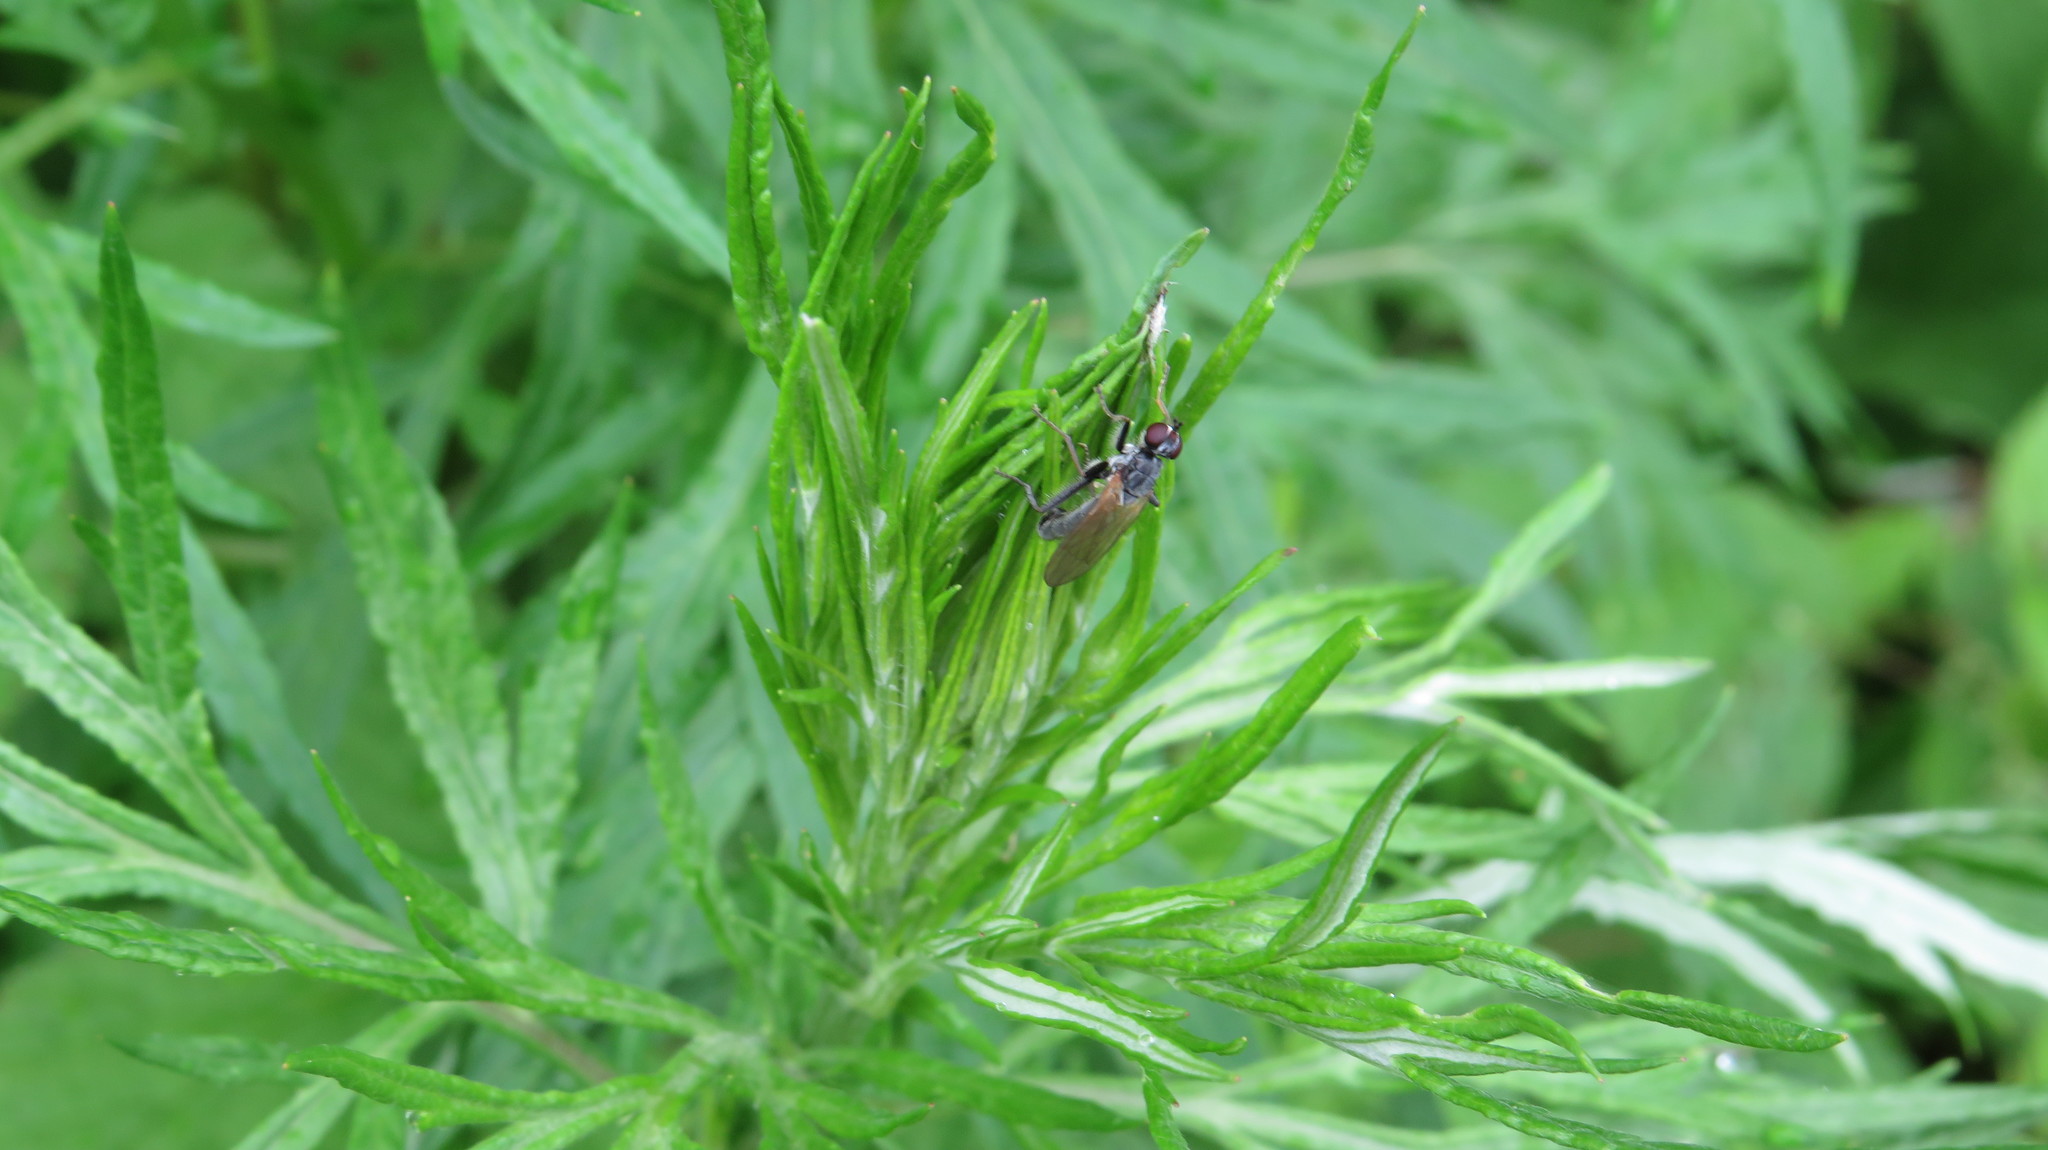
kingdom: Animalia
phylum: Arthropoda
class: Insecta
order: Diptera
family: Sepsidae
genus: Themira
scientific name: Themira pubera
